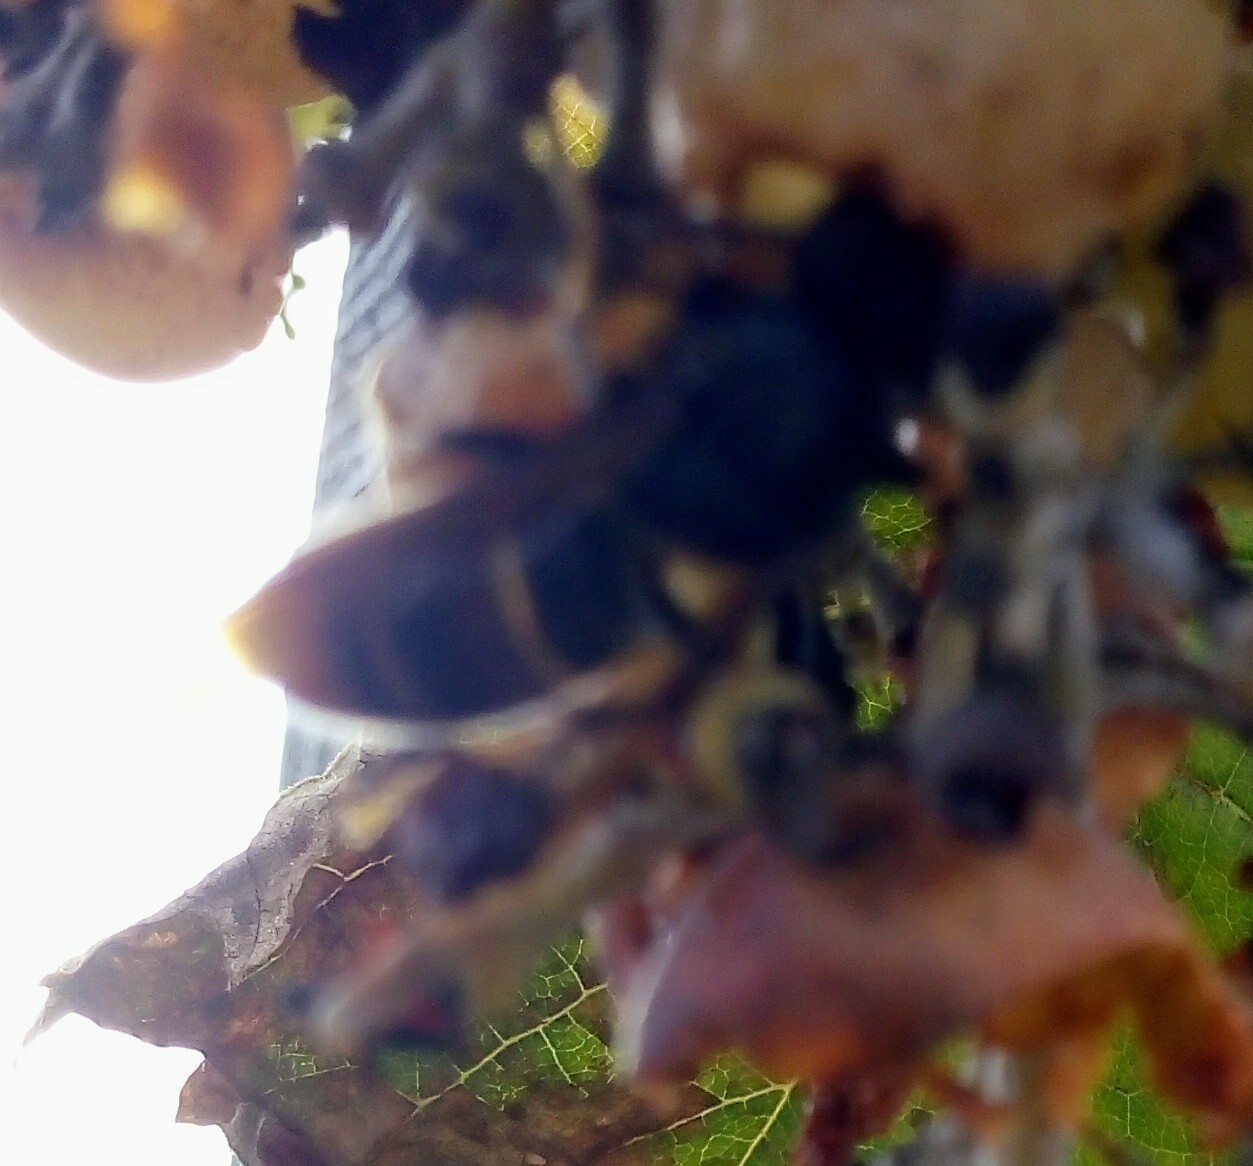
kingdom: Animalia
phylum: Arthropoda
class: Insecta
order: Hymenoptera
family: Vespidae
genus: Vespa
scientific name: Vespa velutina
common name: Asian hornet
